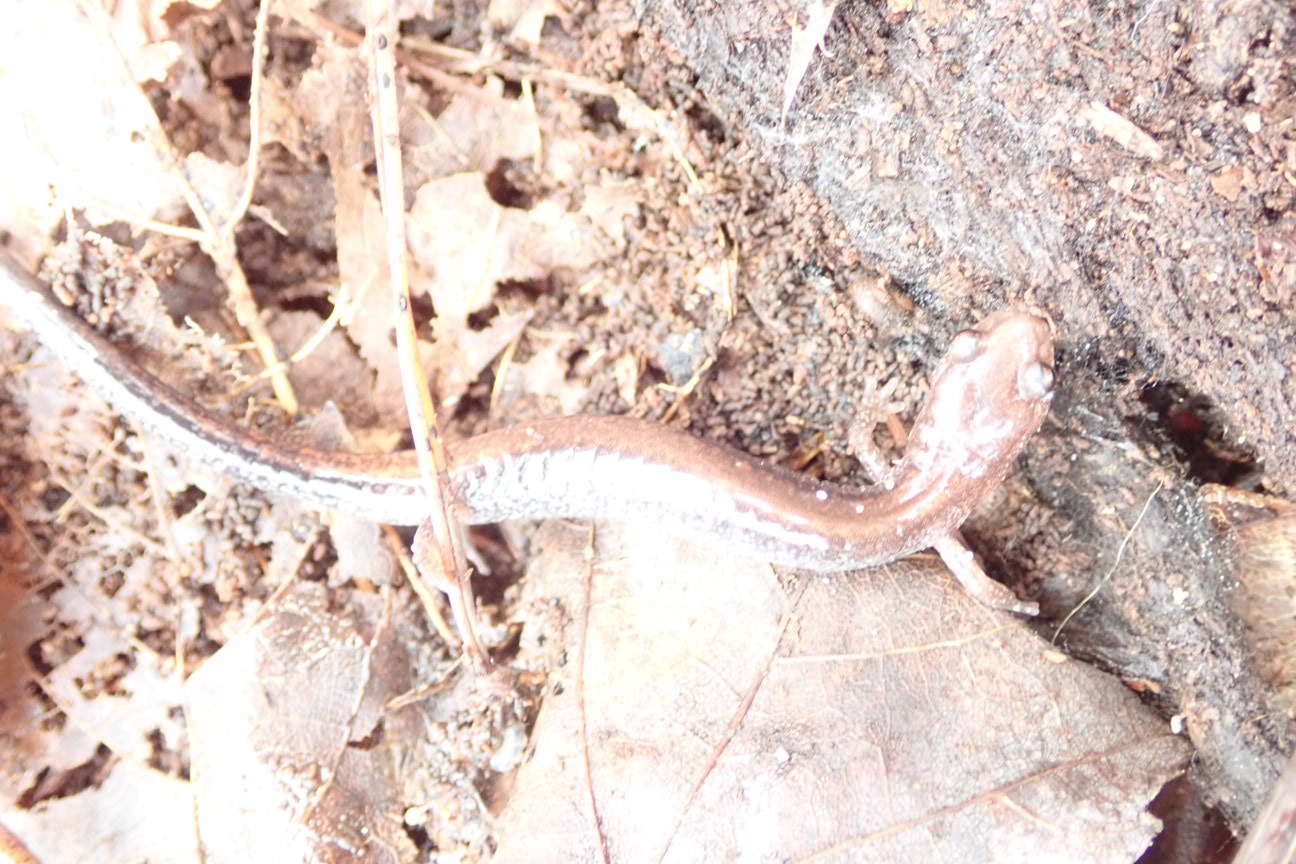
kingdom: Animalia
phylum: Chordata
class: Amphibia
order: Caudata
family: Plethodontidae
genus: Plethodon
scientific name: Plethodon cinereus
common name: Redback salamander
